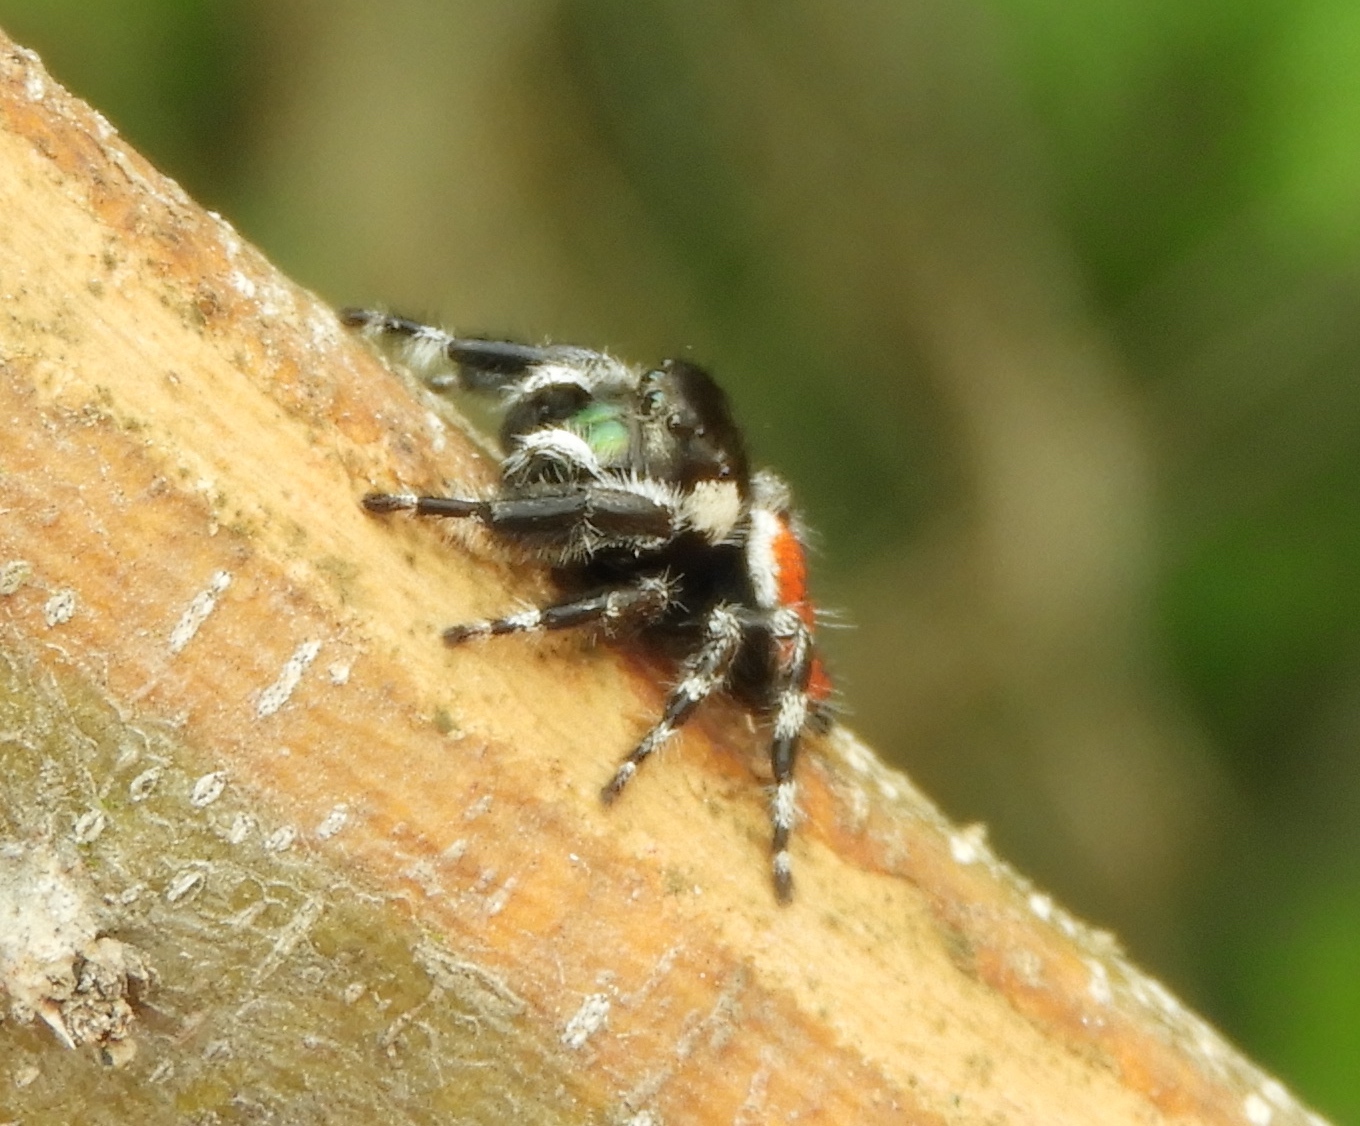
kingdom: Animalia
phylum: Arthropoda
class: Arachnida
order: Araneae
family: Salticidae
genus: Phidippus
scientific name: Phidippus californicus
